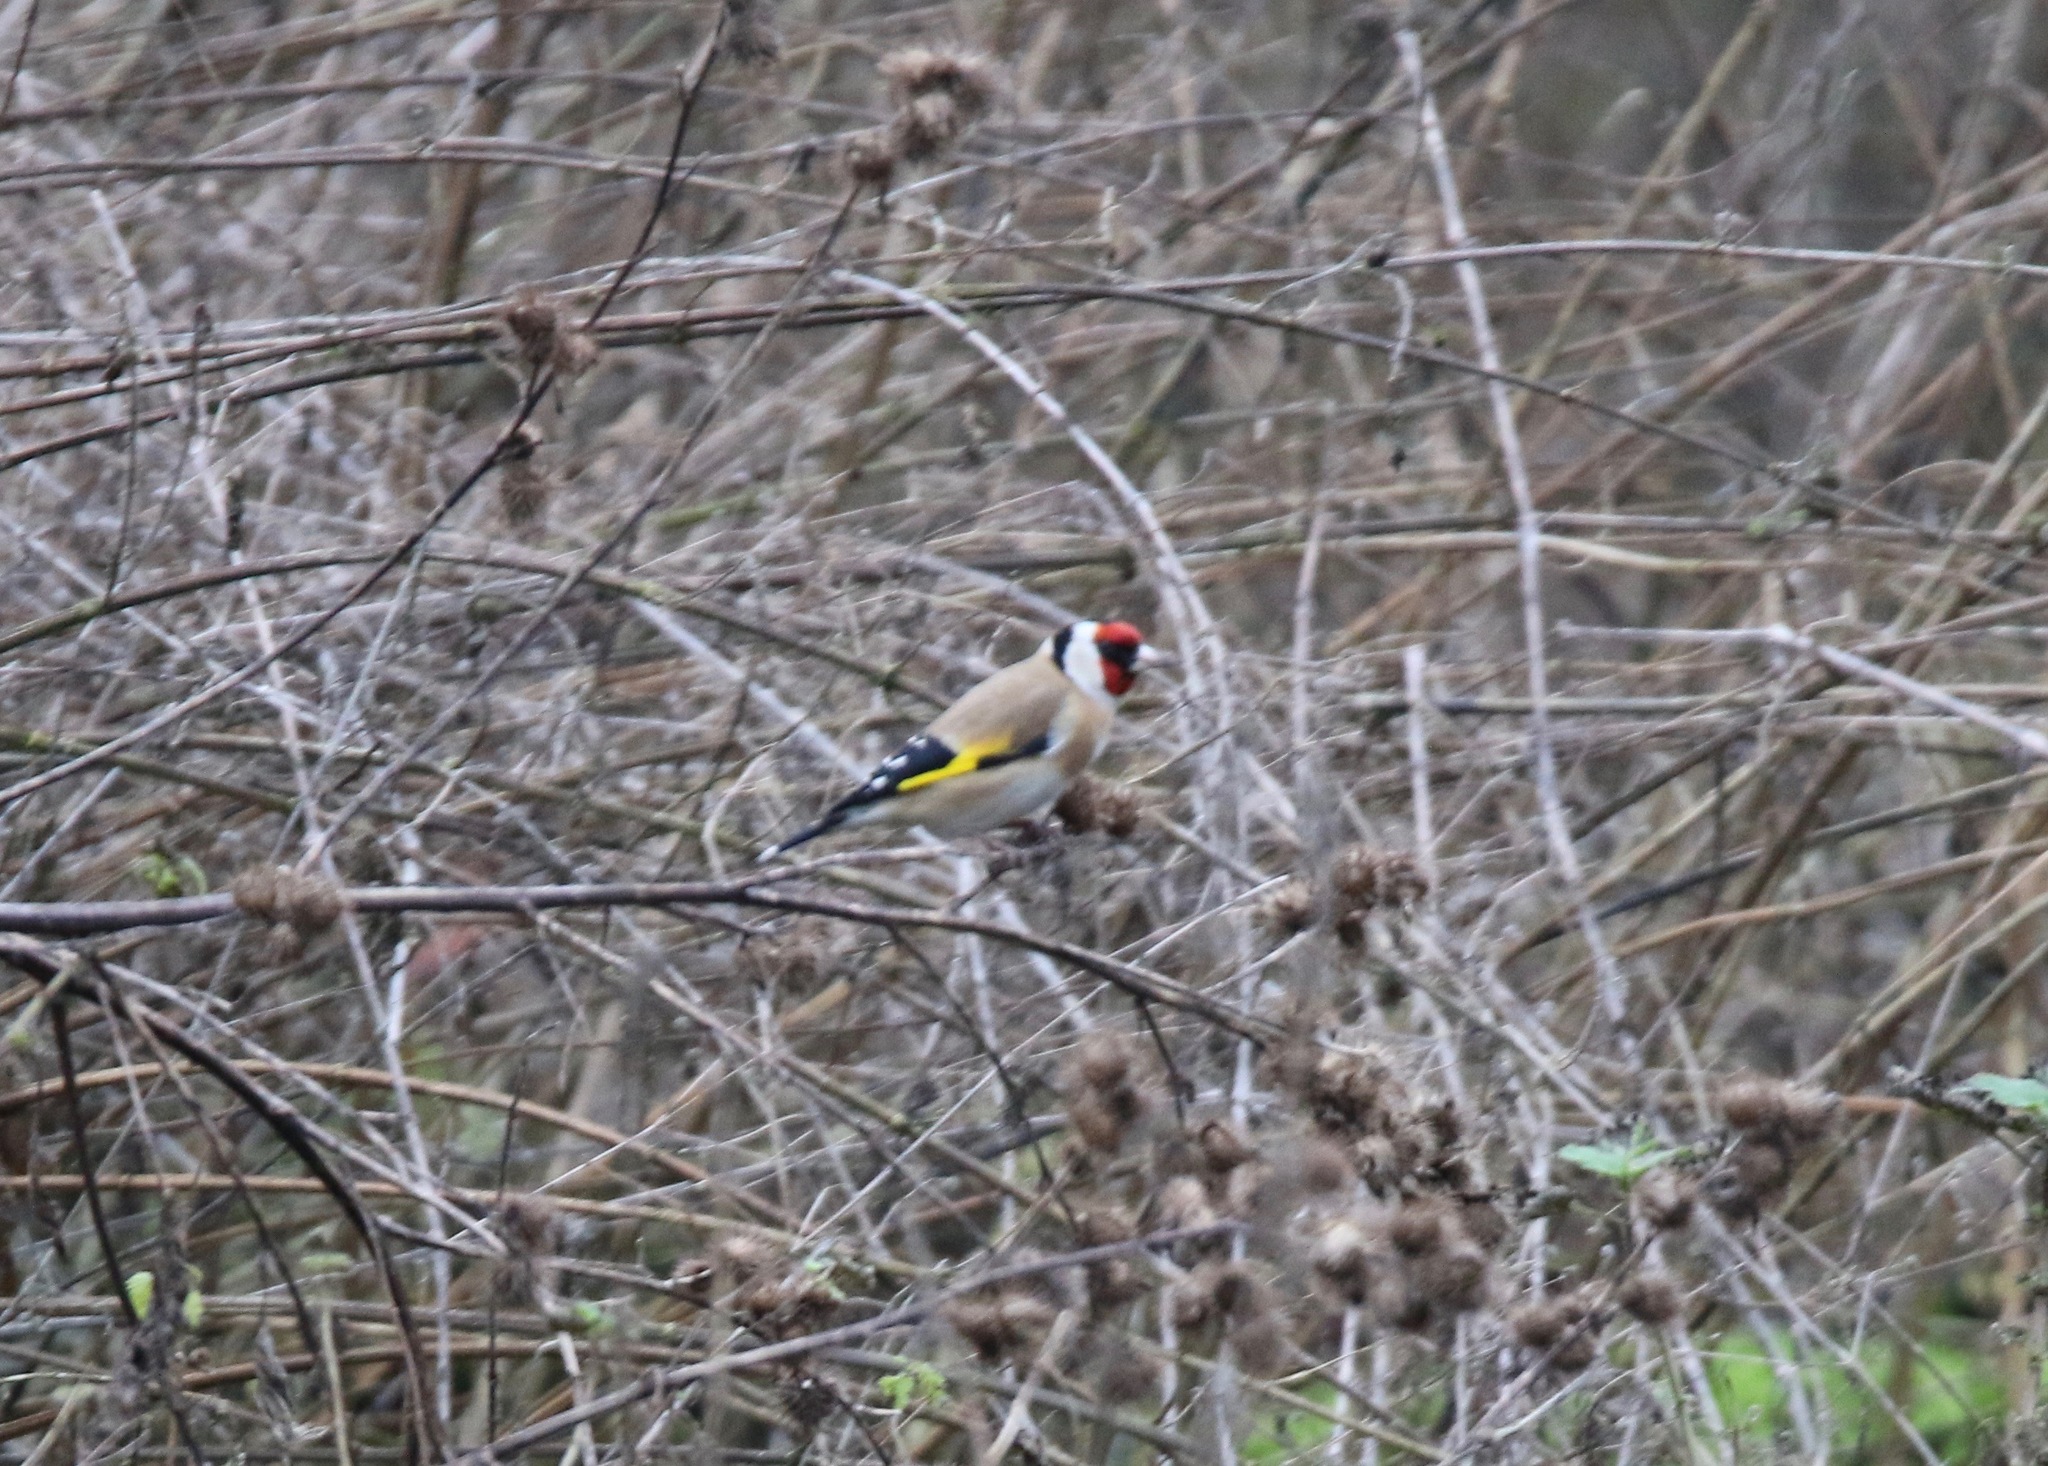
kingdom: Animalia
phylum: Chordata
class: Aves
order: Passeriformes
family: Fringillidae
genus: Carduelis
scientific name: Carduelis carduelis
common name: European goldfinch
